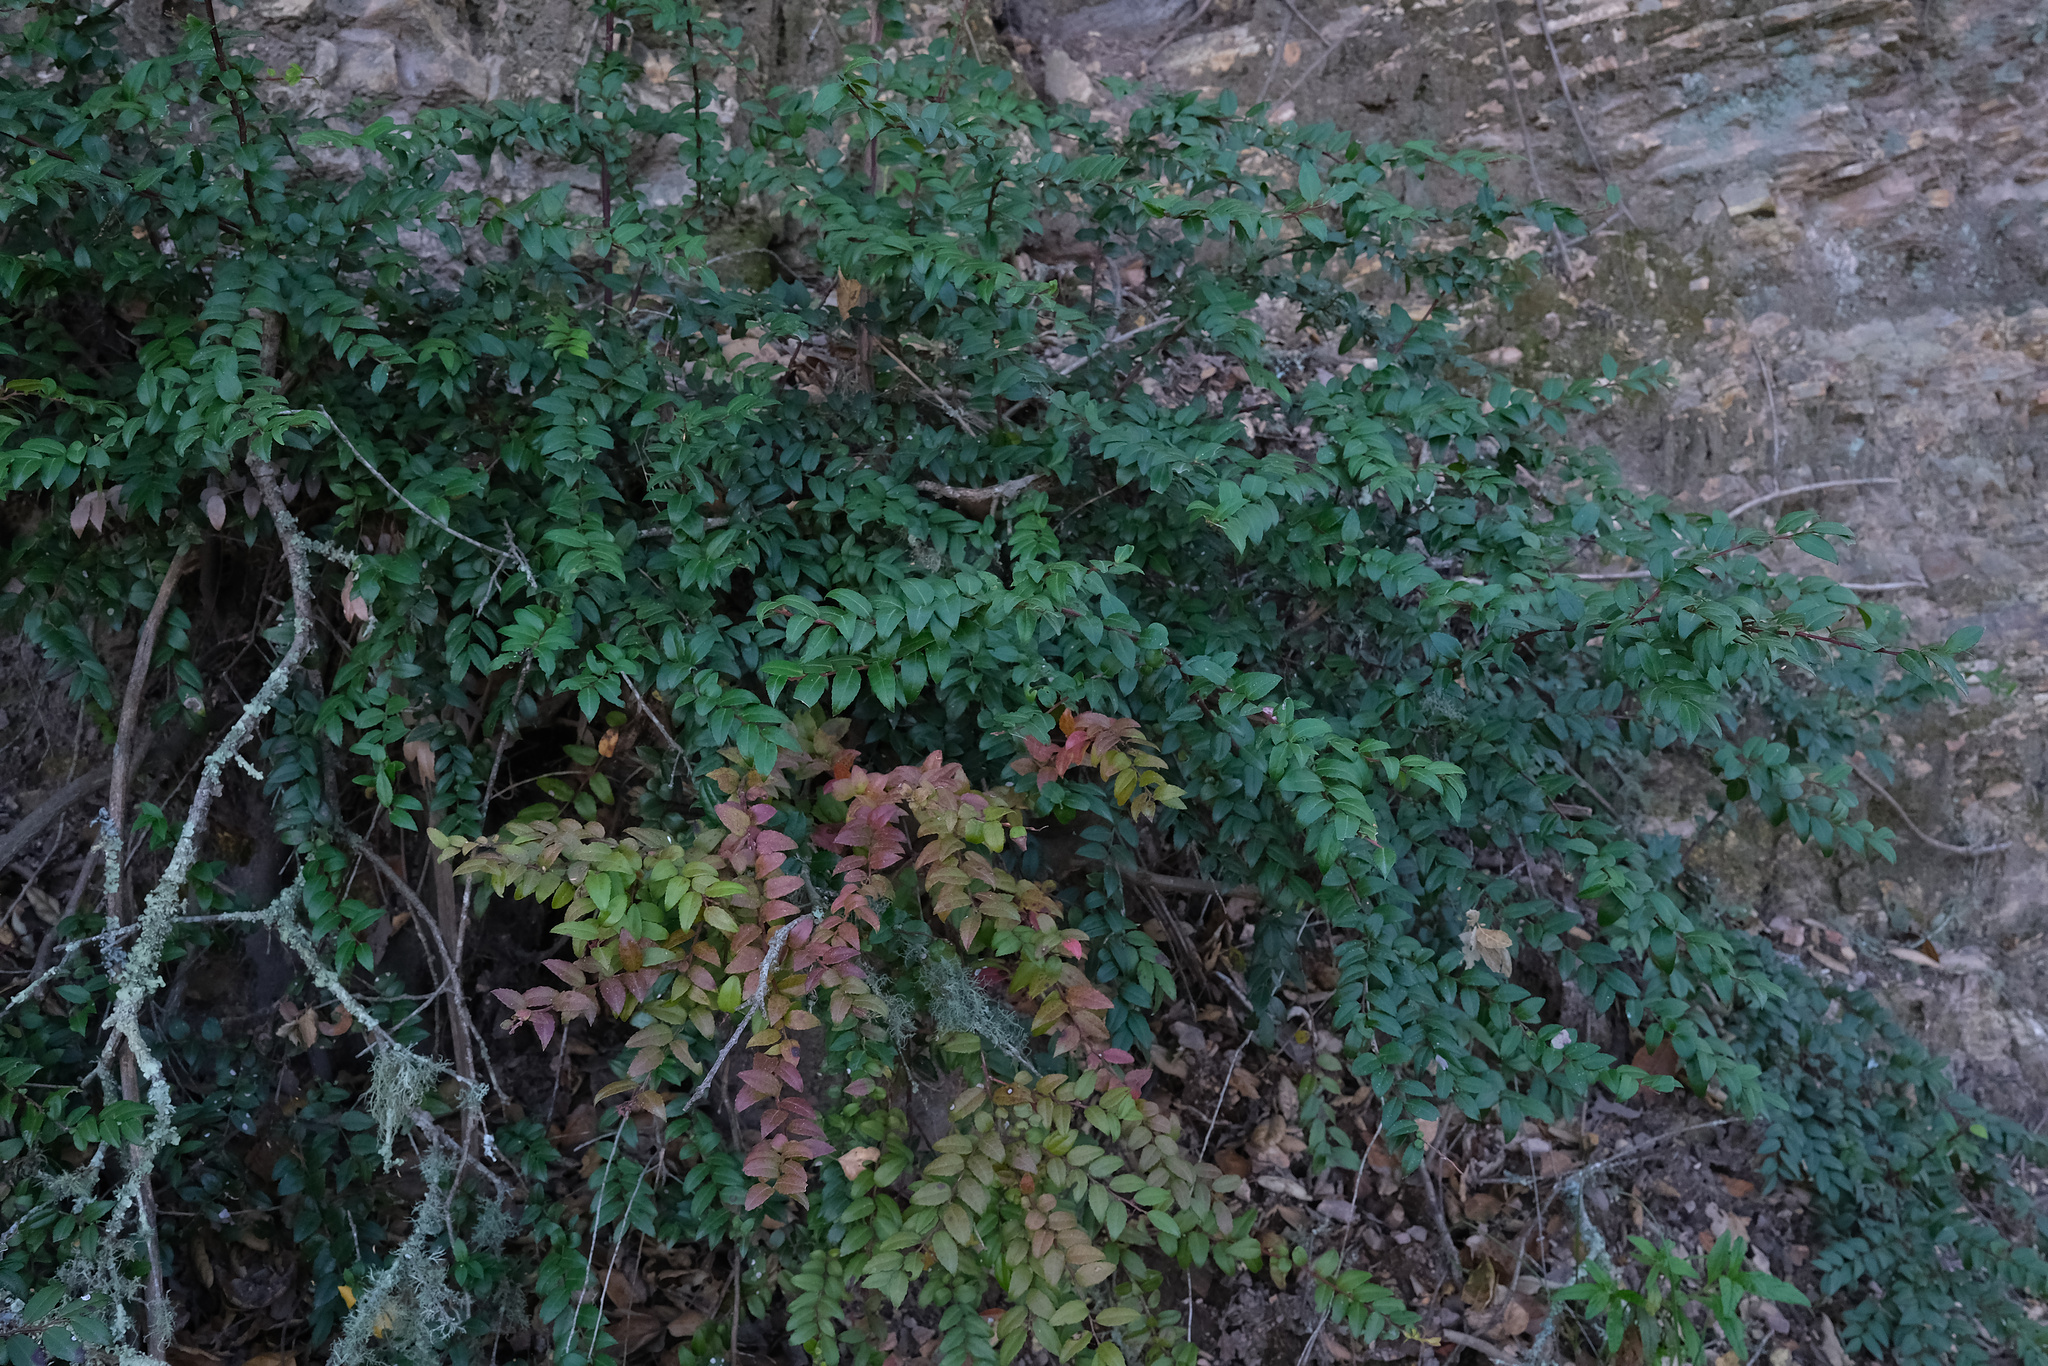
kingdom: Plantae
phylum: Tracheophyta
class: Magnoliopsida
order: Ericales
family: Ericaceae
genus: Vaccinium
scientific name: Vaccinium ovatum
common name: California-huckleberry
